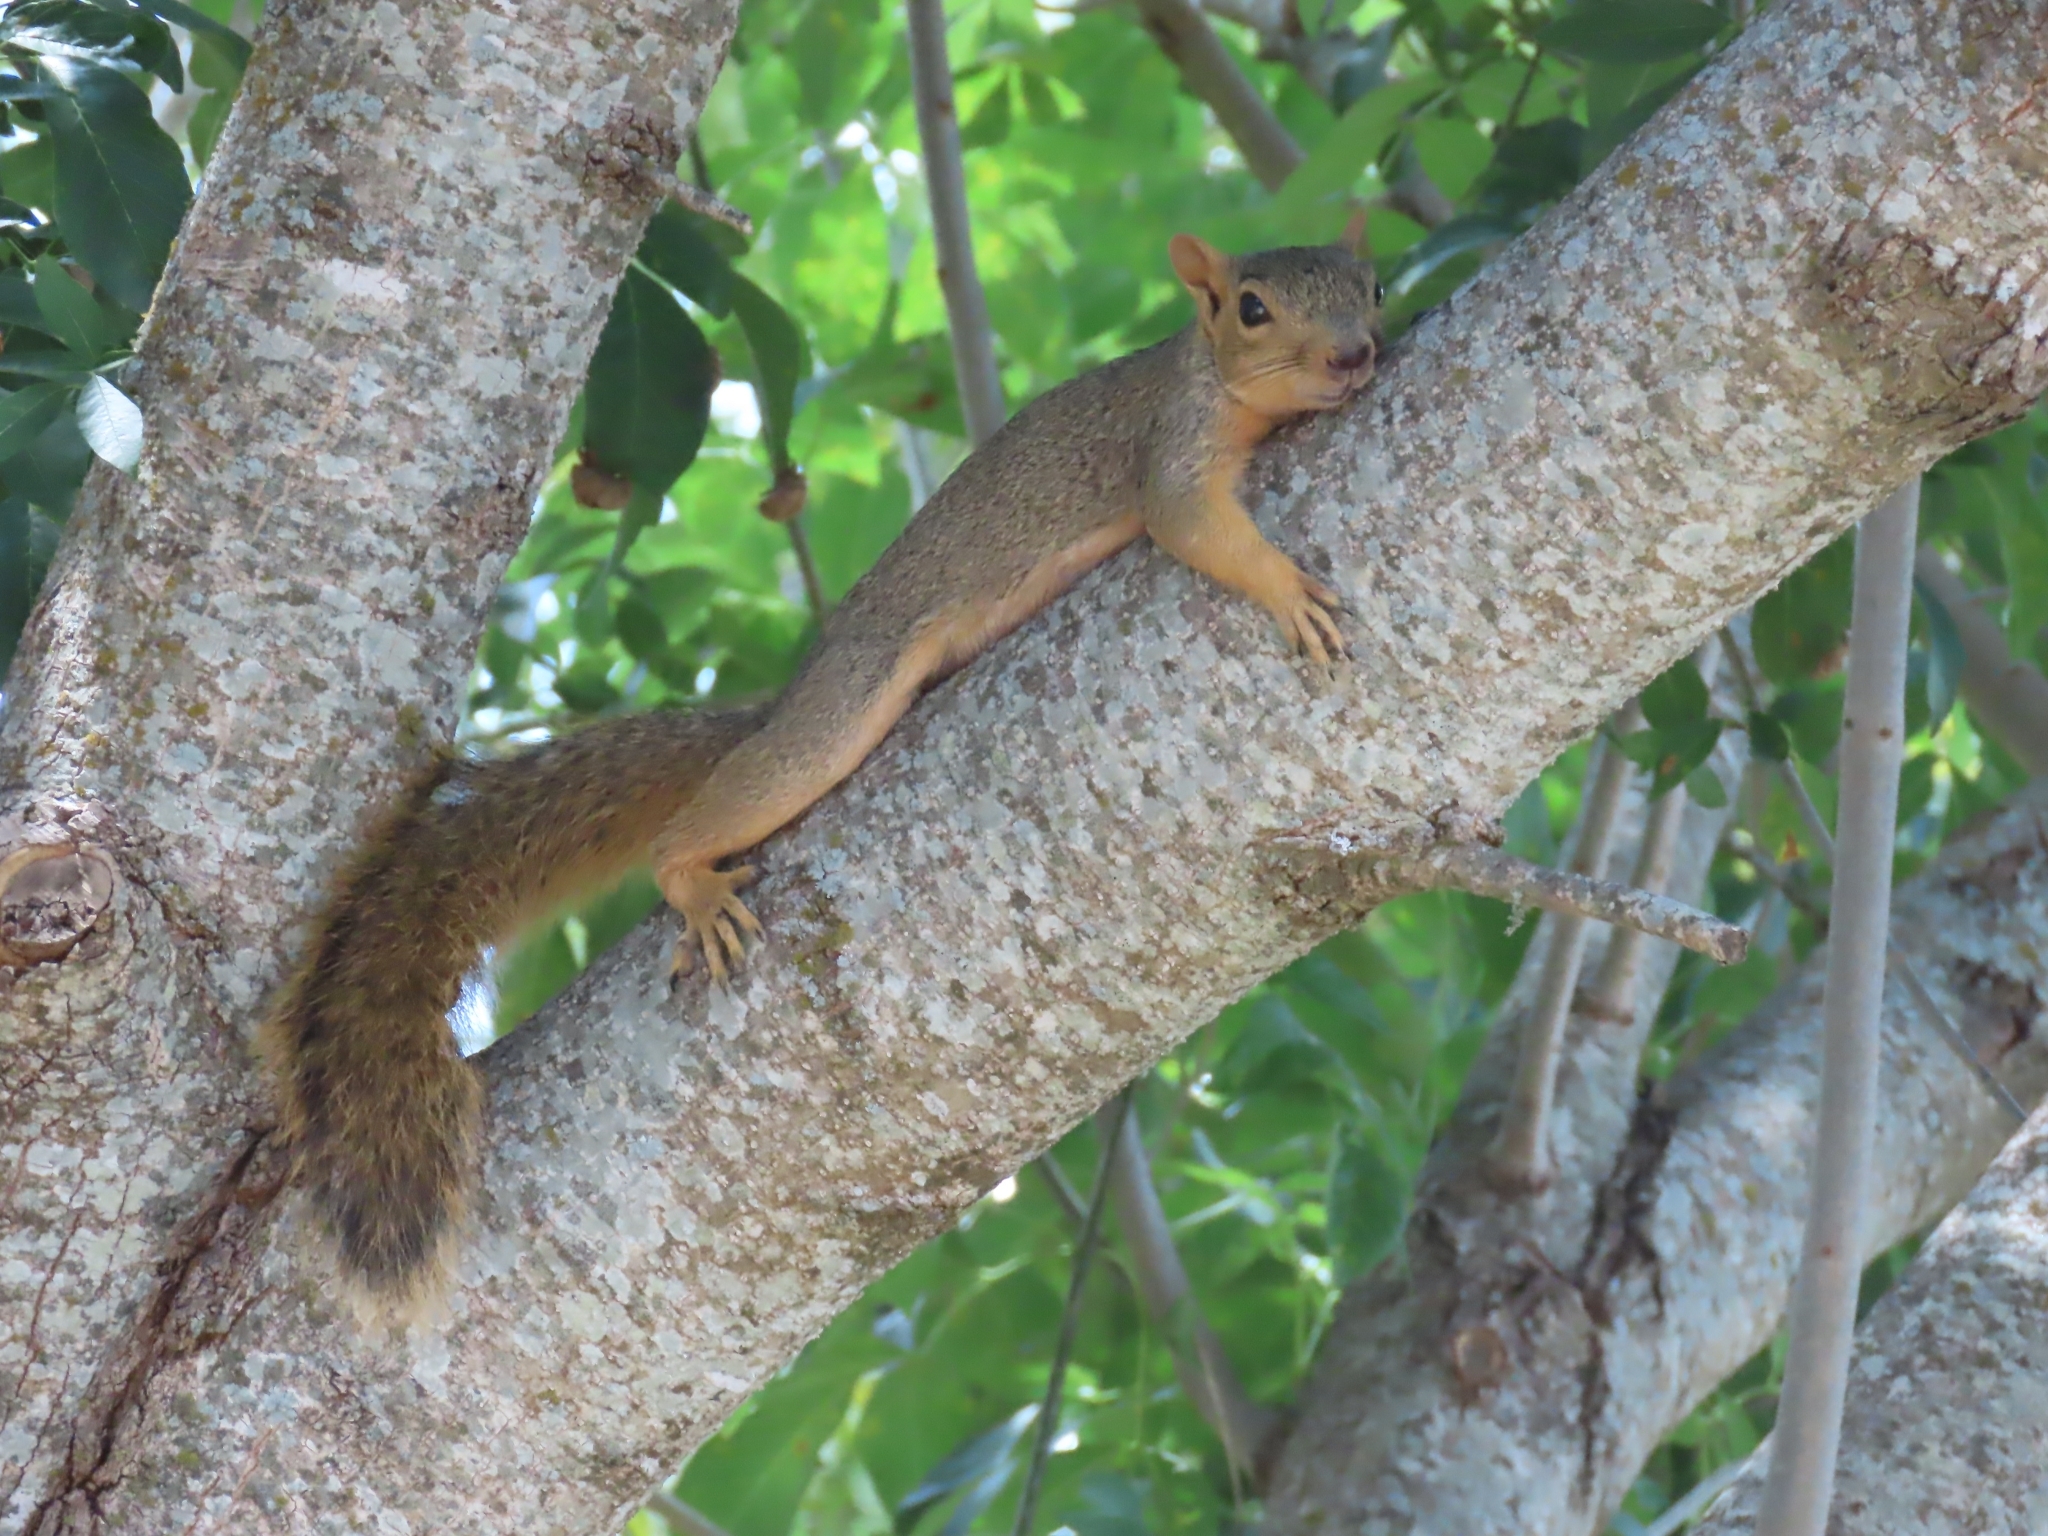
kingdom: Animalia
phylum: Chordata
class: Mammalia
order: Rodentia
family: Sciuridae
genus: Sciurus
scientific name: Sciurus niger
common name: Fox squirrel
